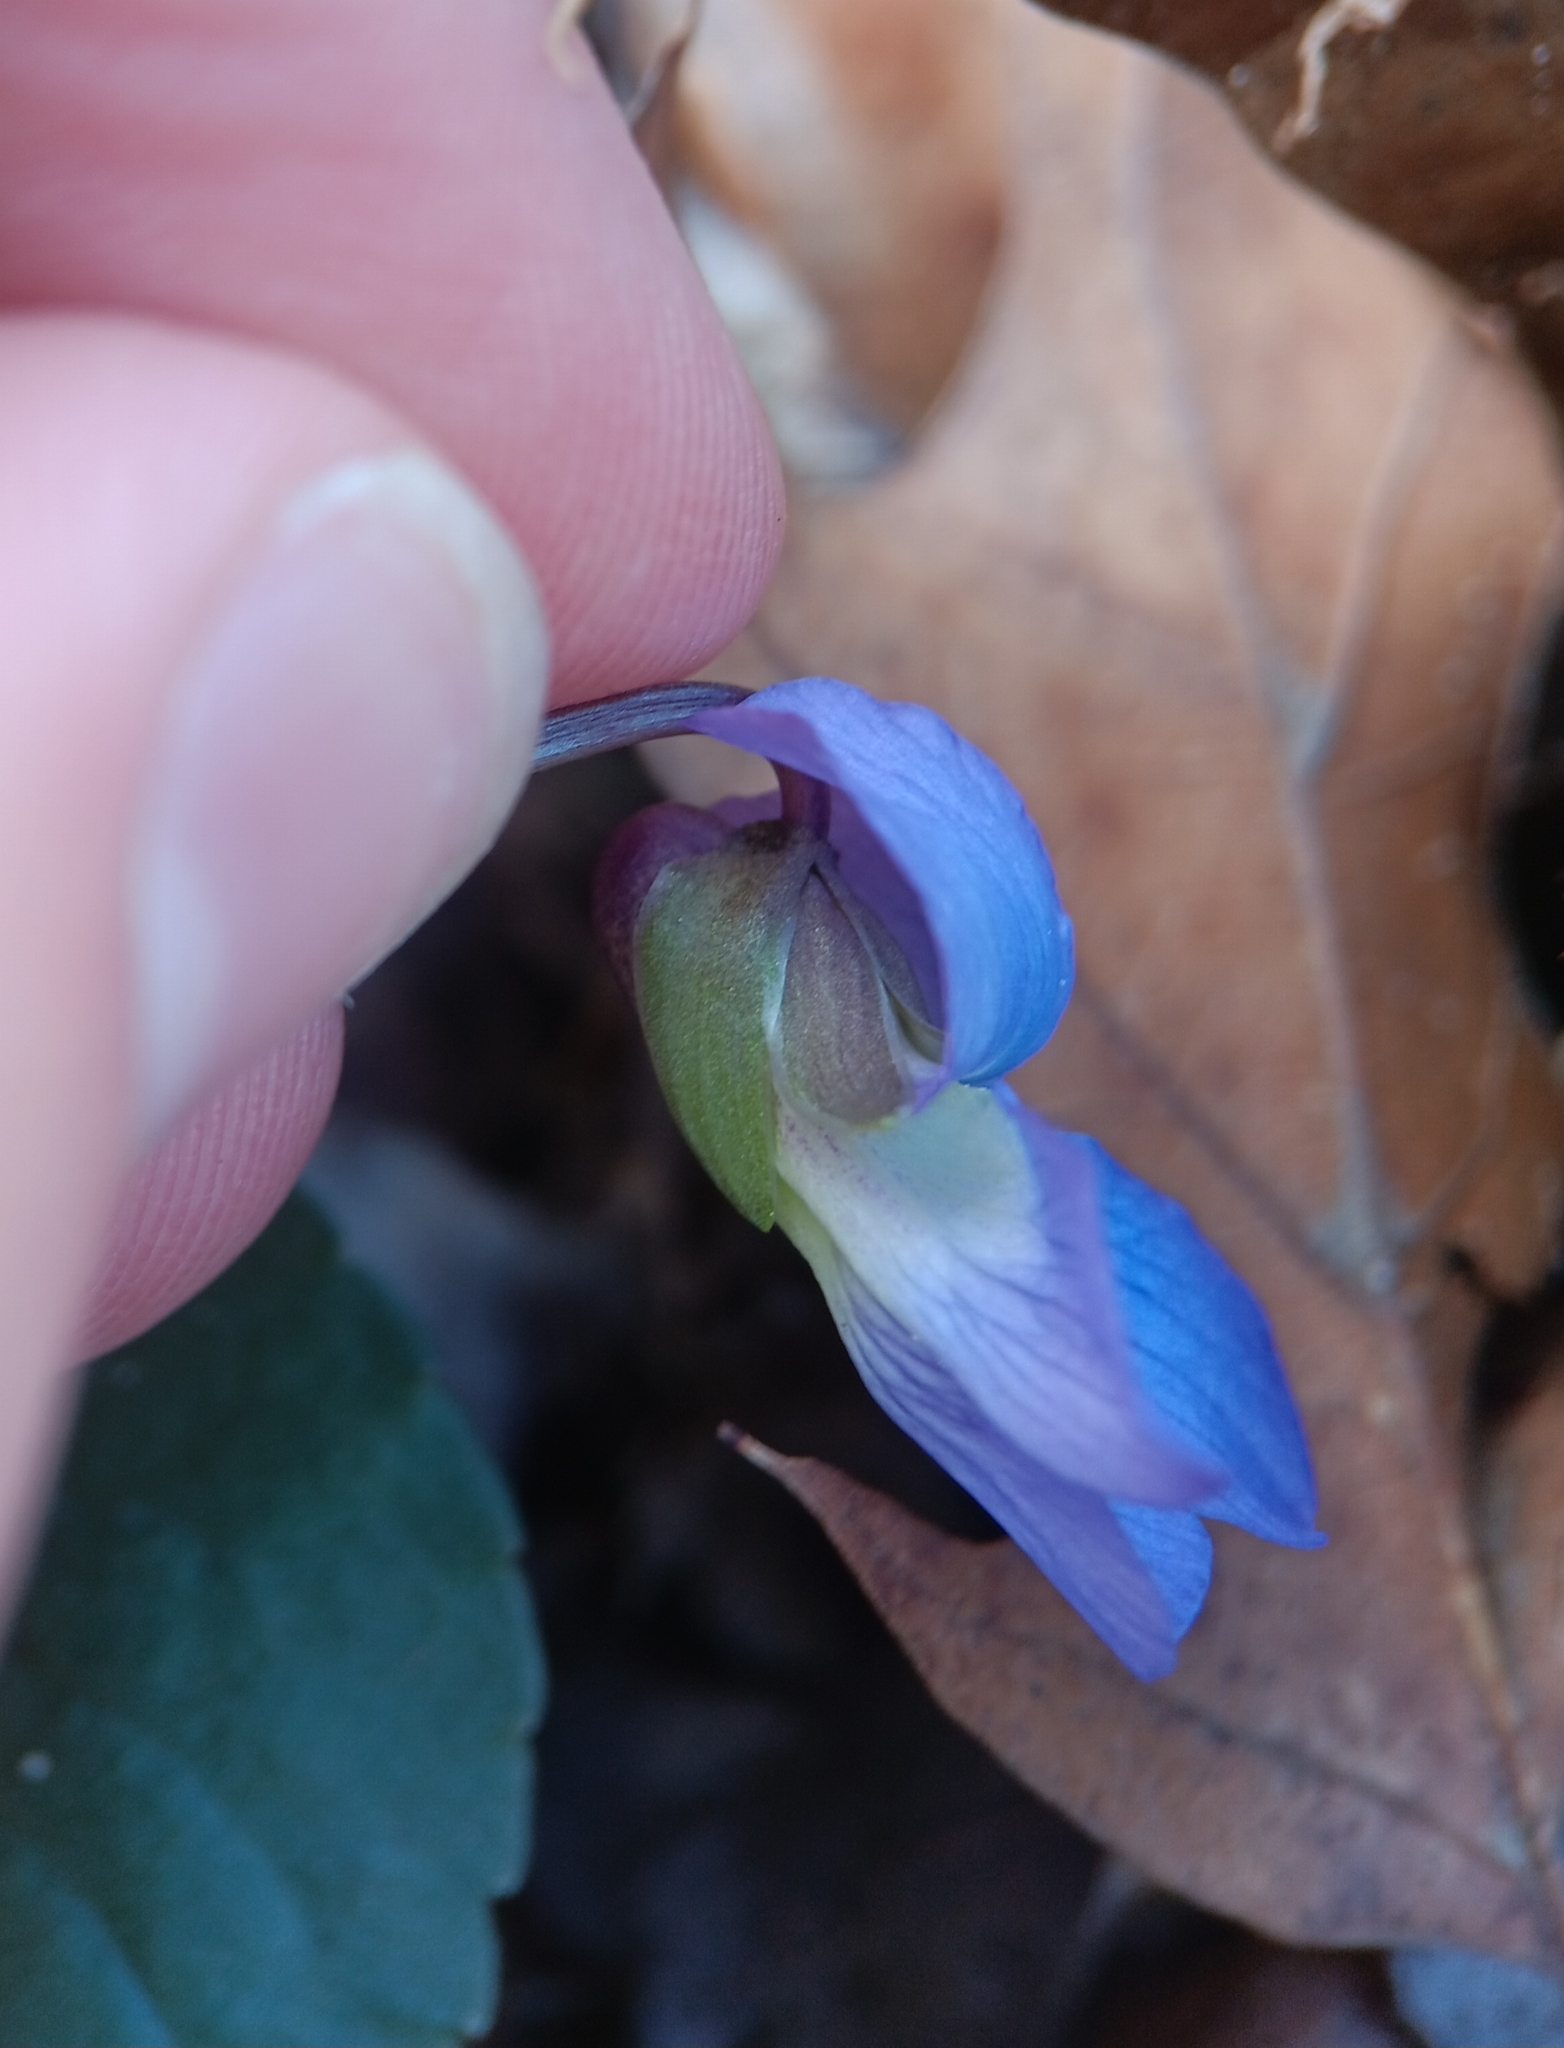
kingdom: Plantae
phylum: Tracheophyta
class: Magnoliopsida
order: Malpighiales
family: Violaceae
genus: Viola
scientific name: Viola sororia
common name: Dooryard violet
